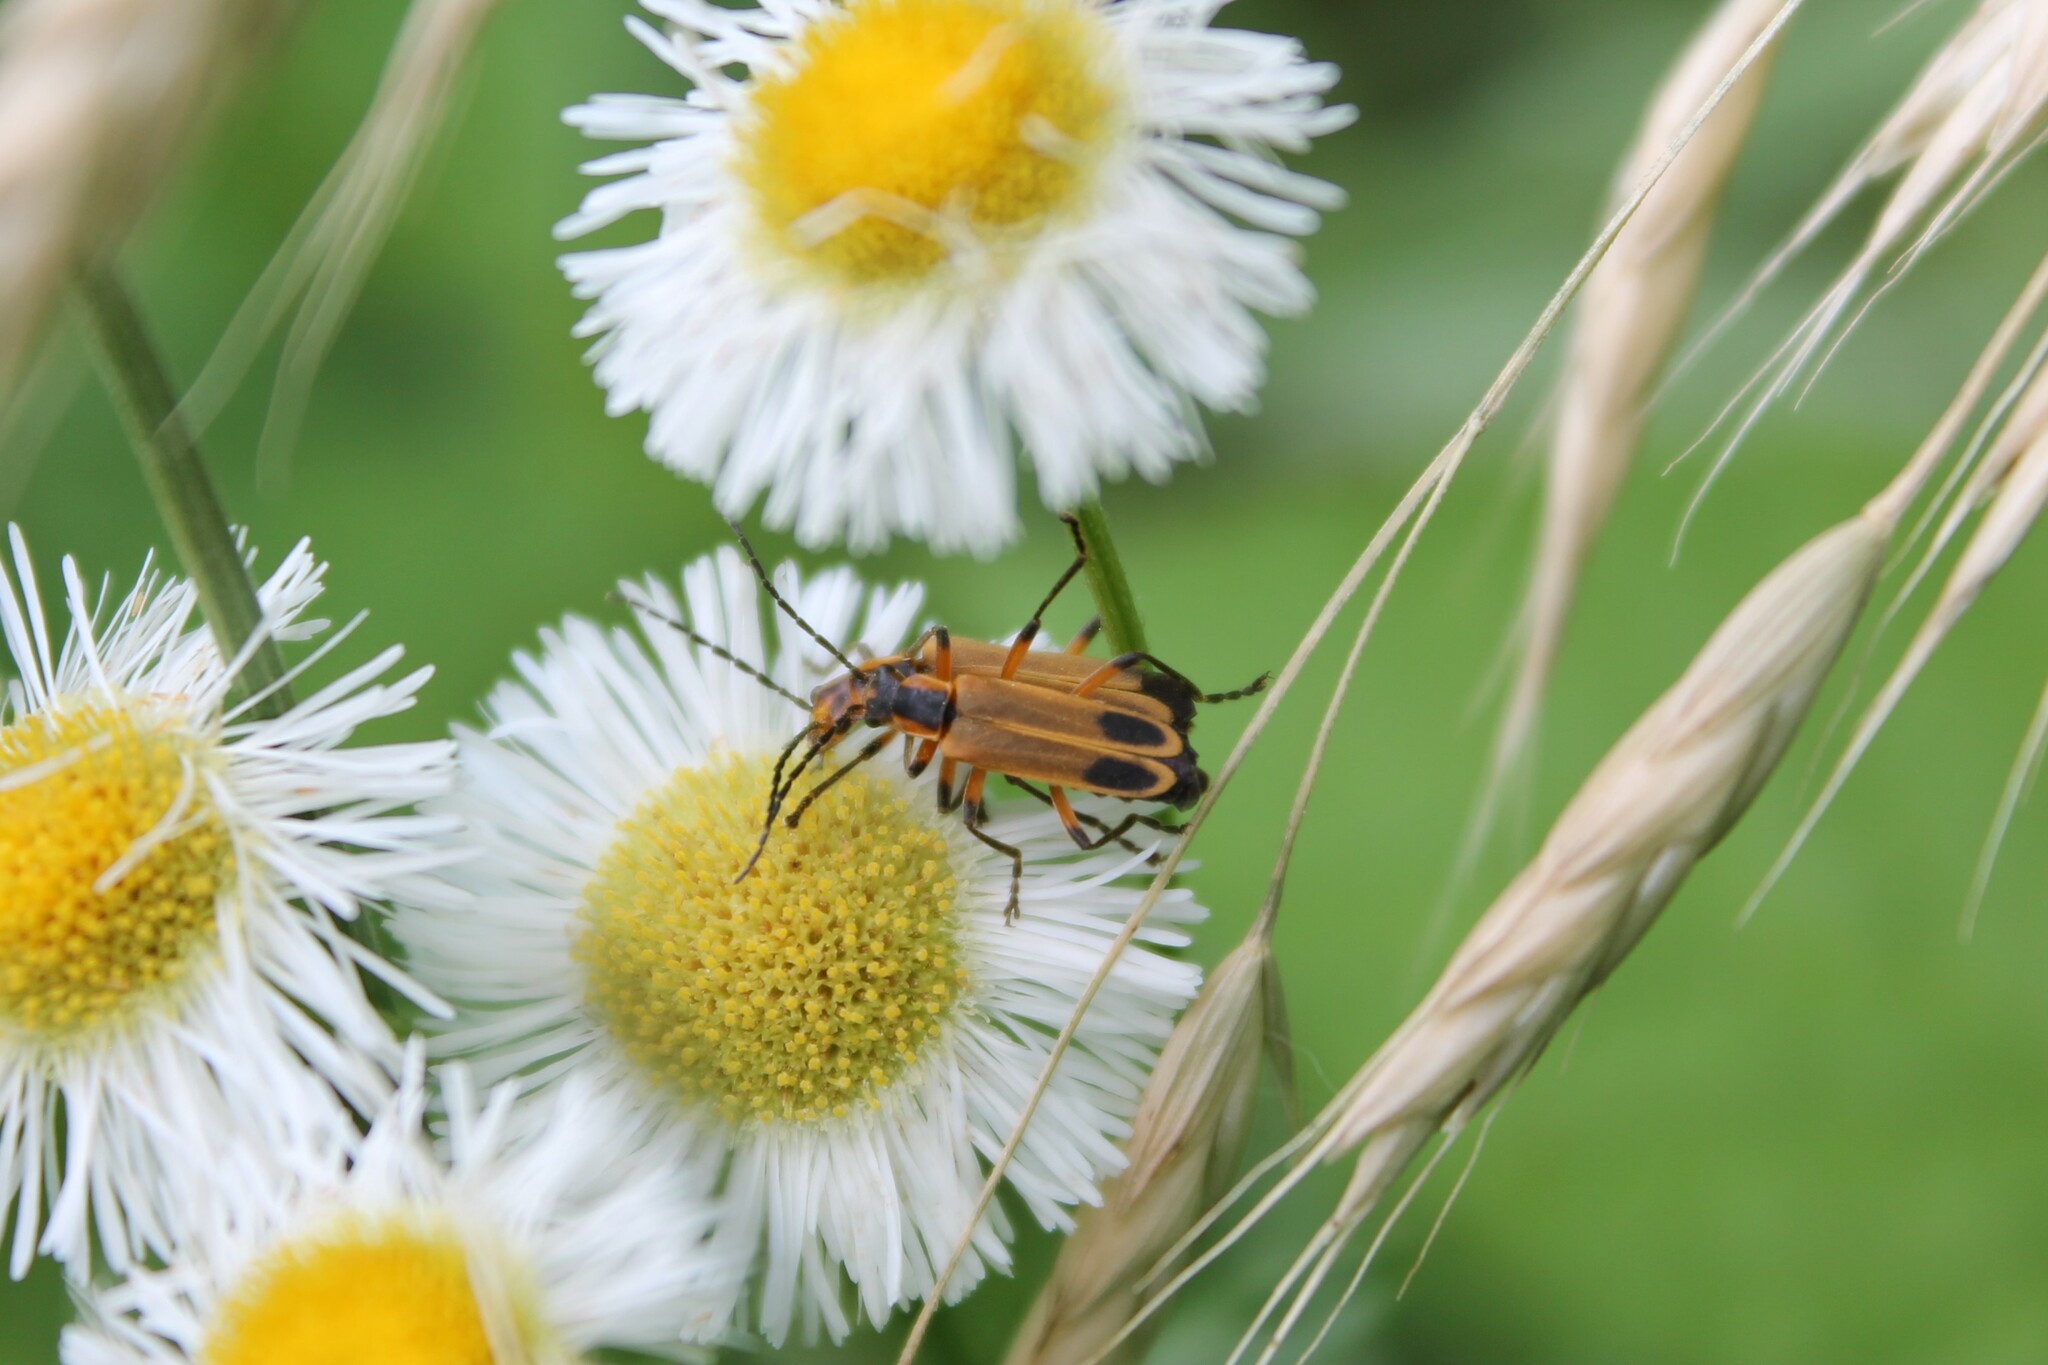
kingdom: Animalia
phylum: Arthropoda
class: Insecta
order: Coleoptera
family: Cantharidae
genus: Chauliognathus
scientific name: Chauliognathus marginatus
